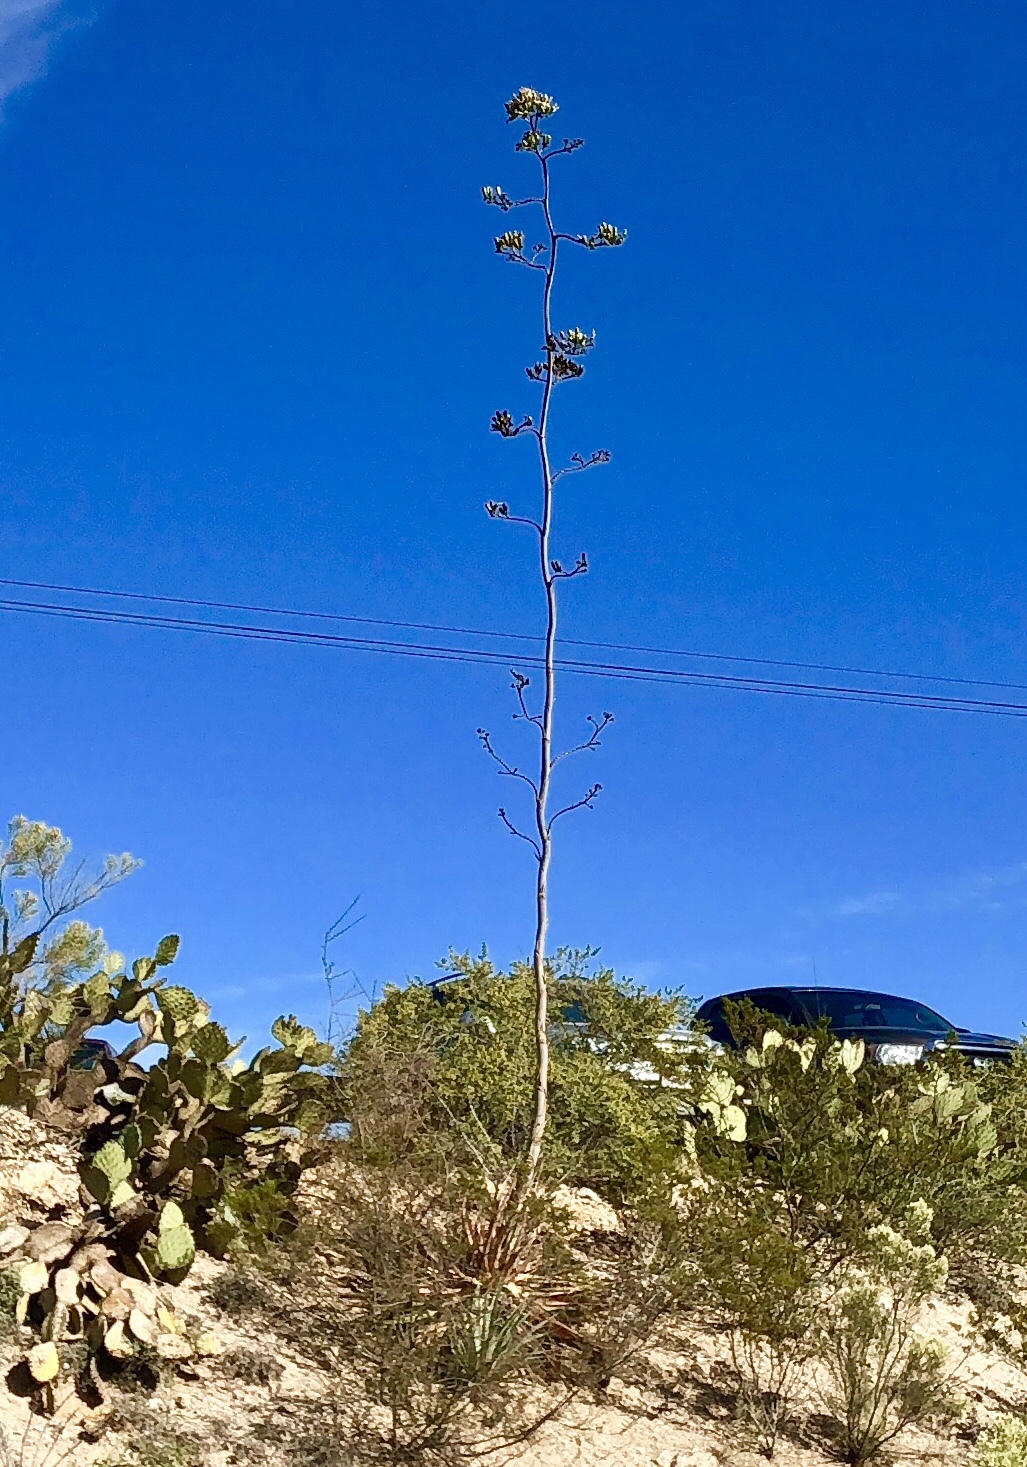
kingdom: Plantae
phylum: Tracheophyta
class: Liliopsida
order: Asparagales
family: Asparagaceae
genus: Agave
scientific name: Agave palmeri
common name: Palmer agave
